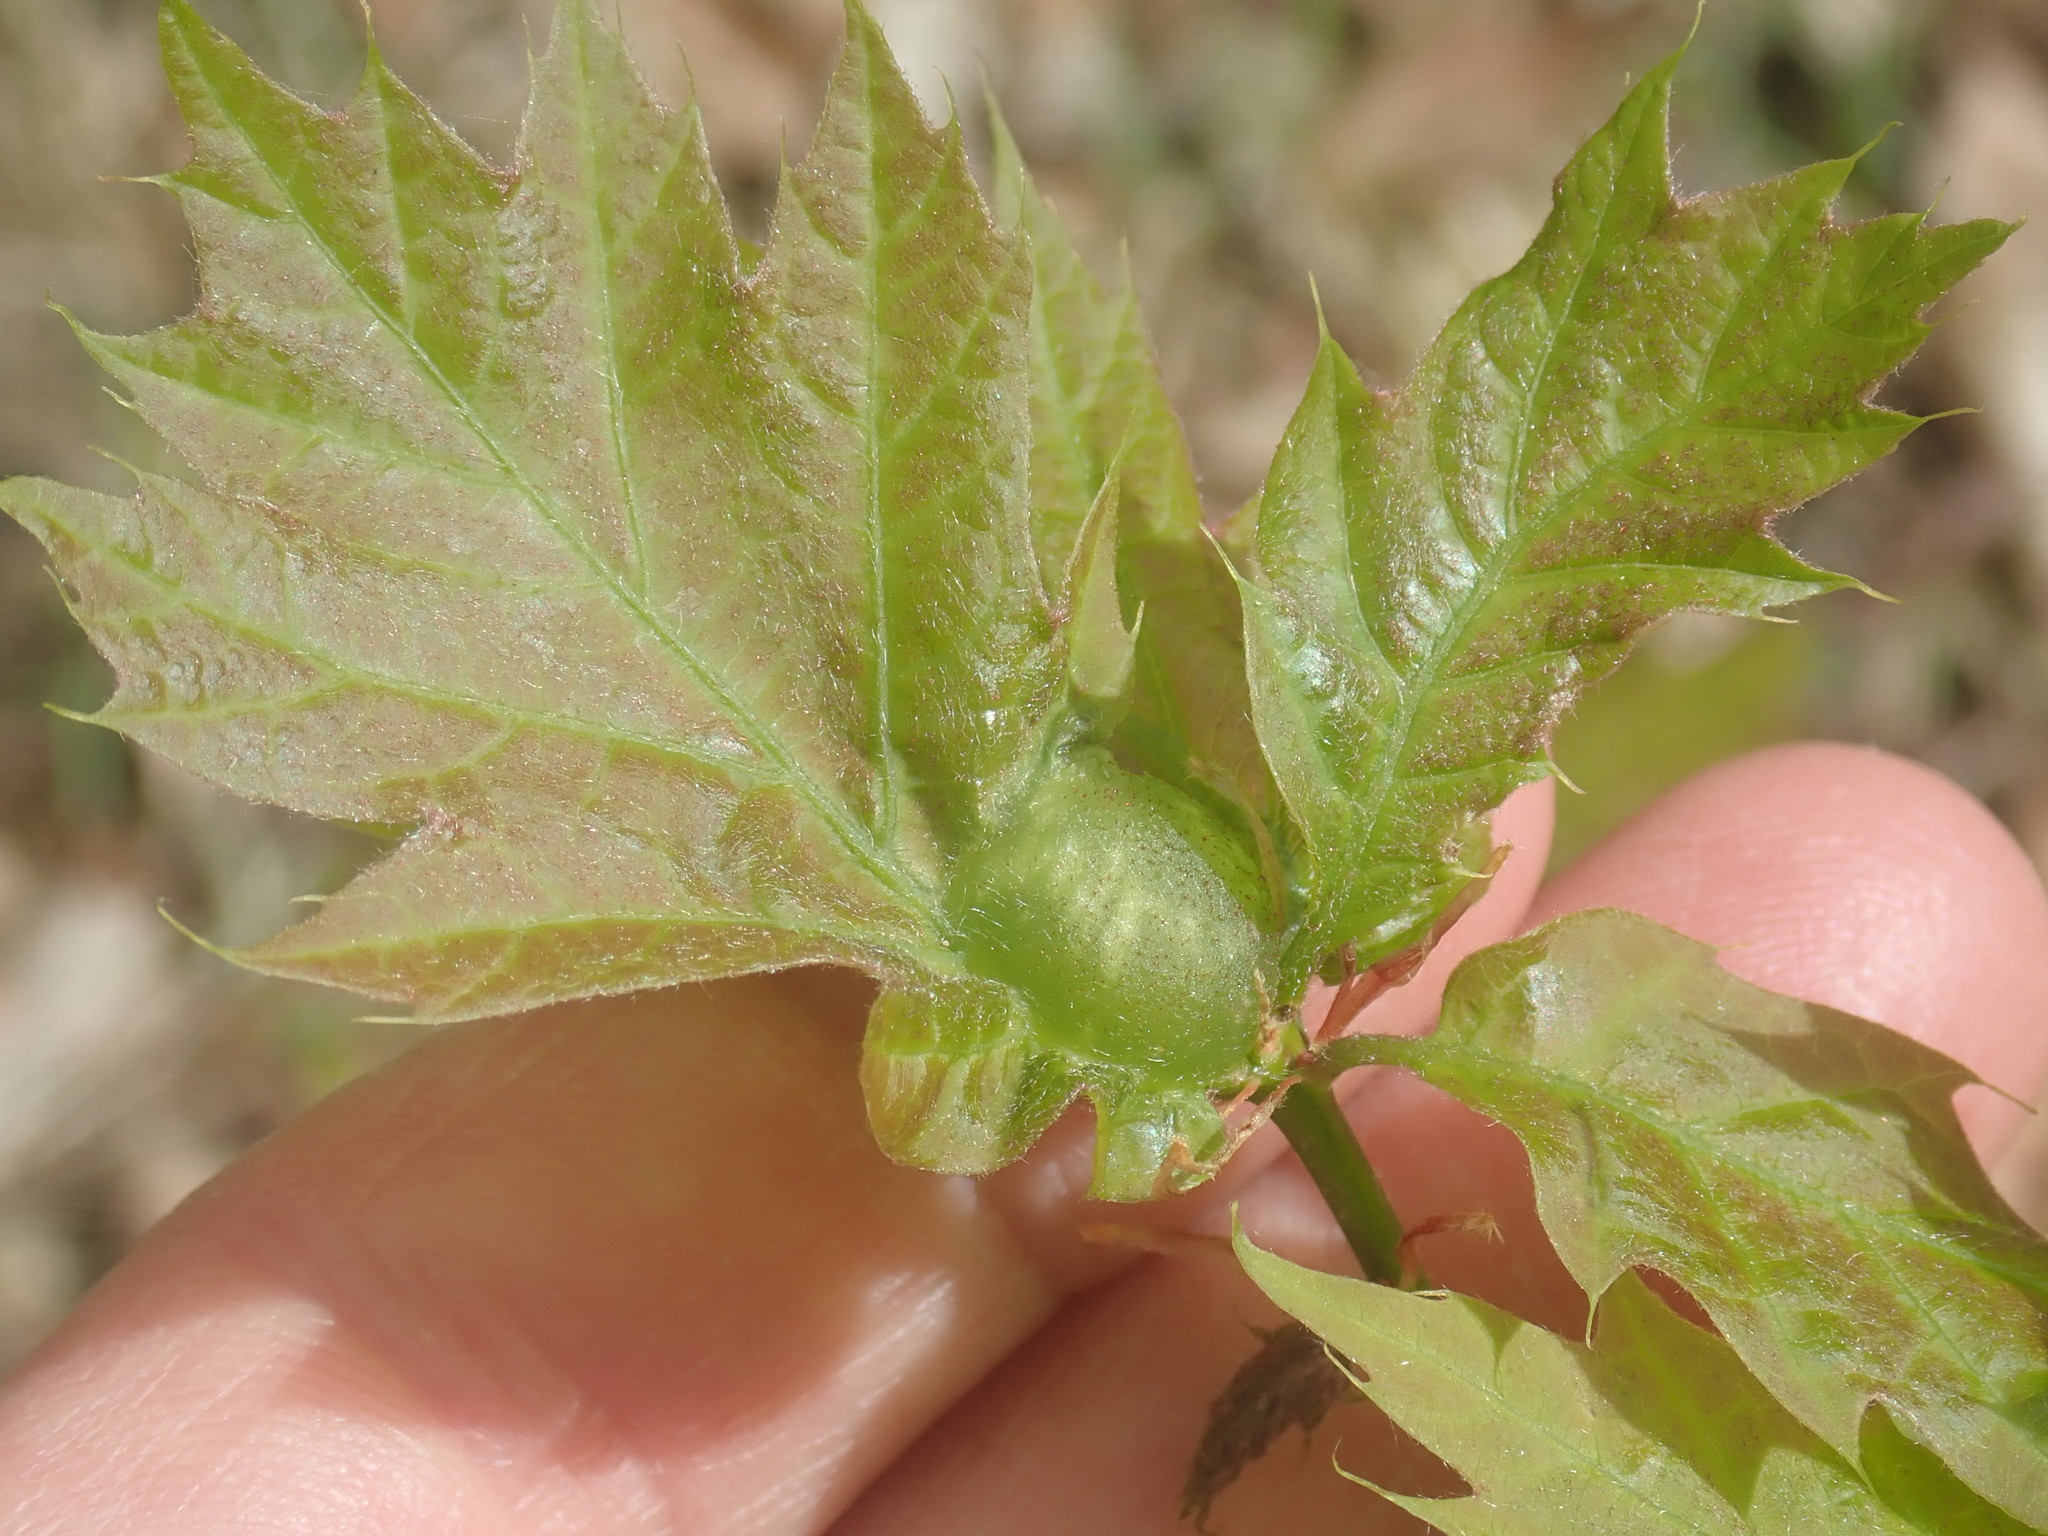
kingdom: Animalia
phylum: Arthropoda
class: Insecta
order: Hymenoptera
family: Cynipidae
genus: Dryocosmus
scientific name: Dryocosmus quercuspalustris
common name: Succulent oak gall wasp
